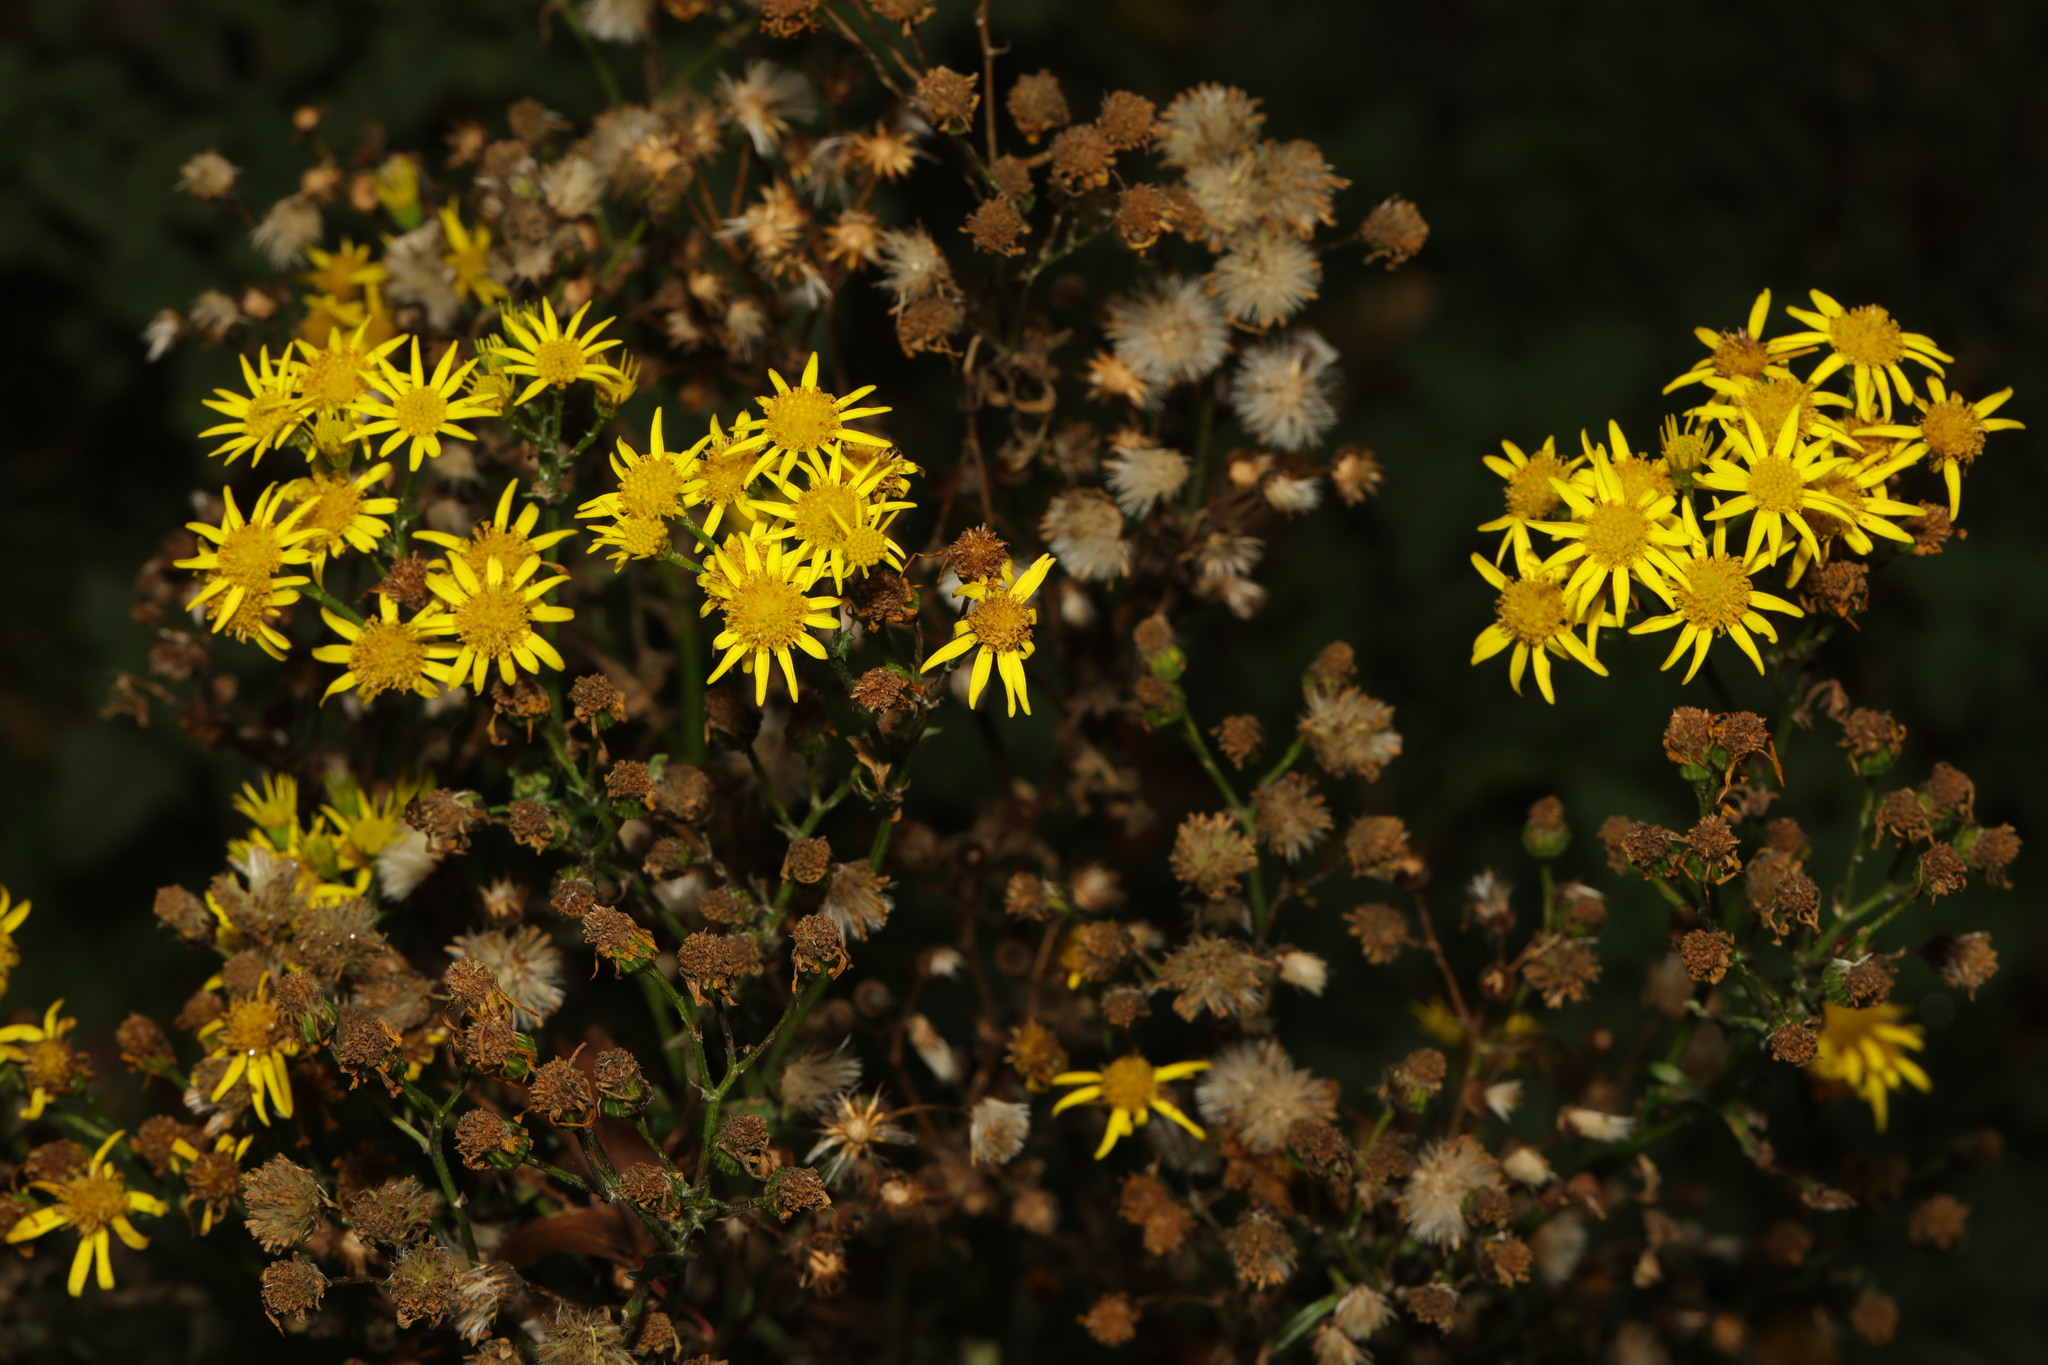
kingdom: Plantae
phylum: Tracheophyta
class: Magnoliopsida
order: Asterales
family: Asteraceae
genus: Jacobaea
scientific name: Jacobaea vulgaris
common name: Stinking willie
